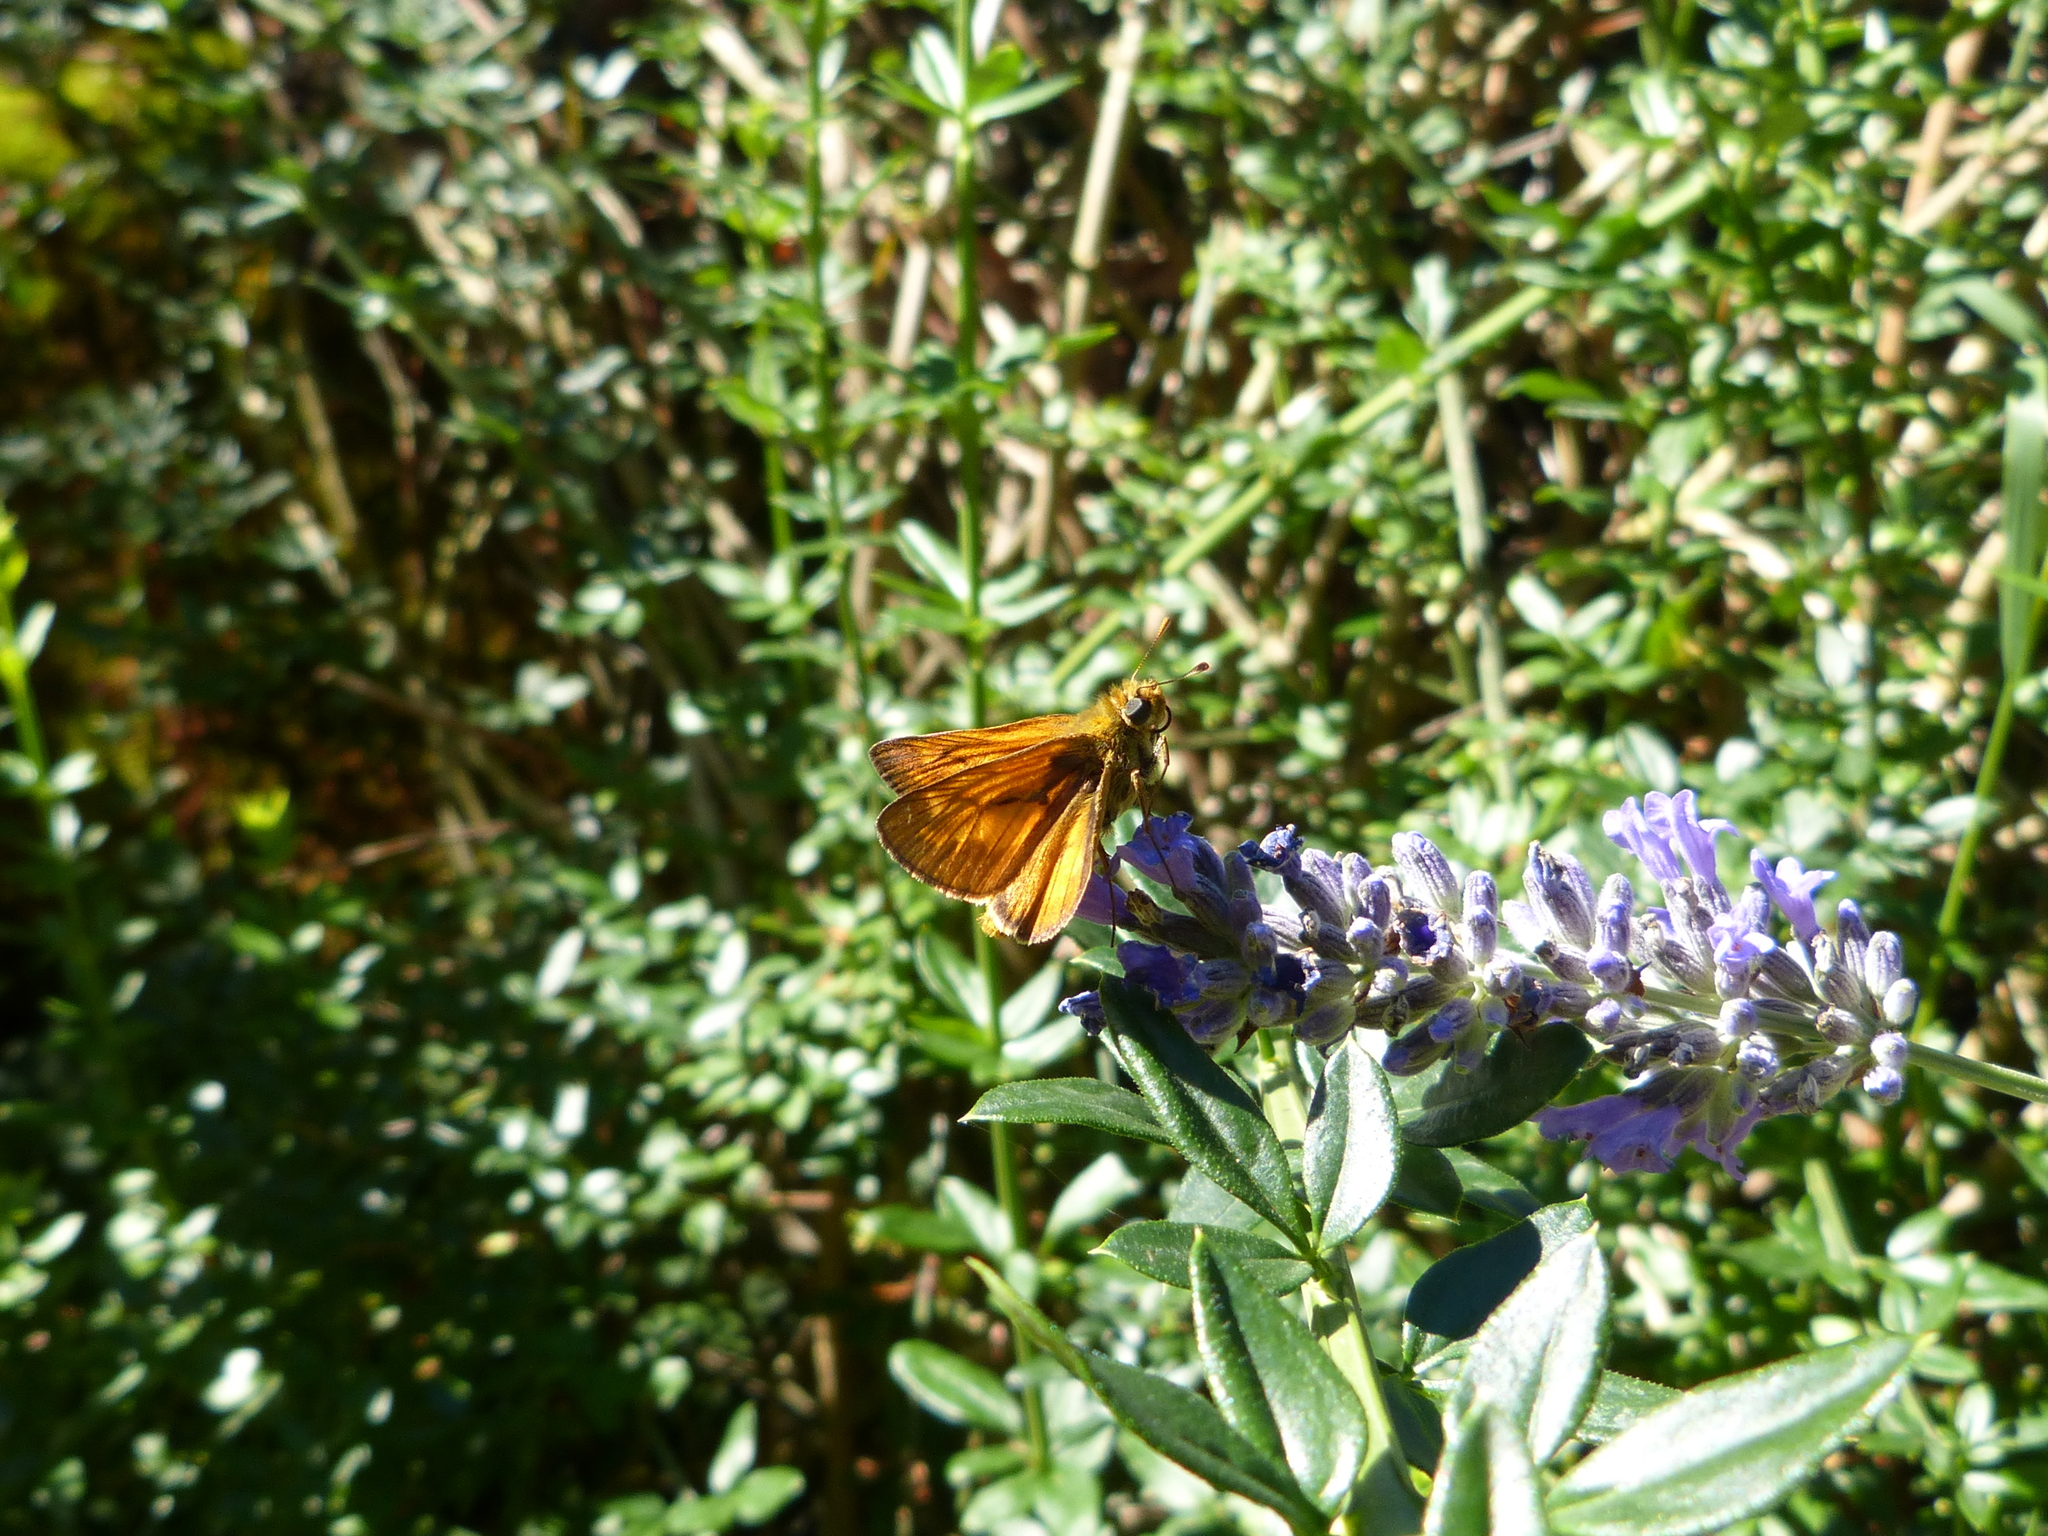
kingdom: Animalia
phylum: Arthropoda
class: Insecta
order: Lepidoptera
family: Hesperiidae
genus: Ochlodes
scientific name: Ochlodes venata
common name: Large skipper
